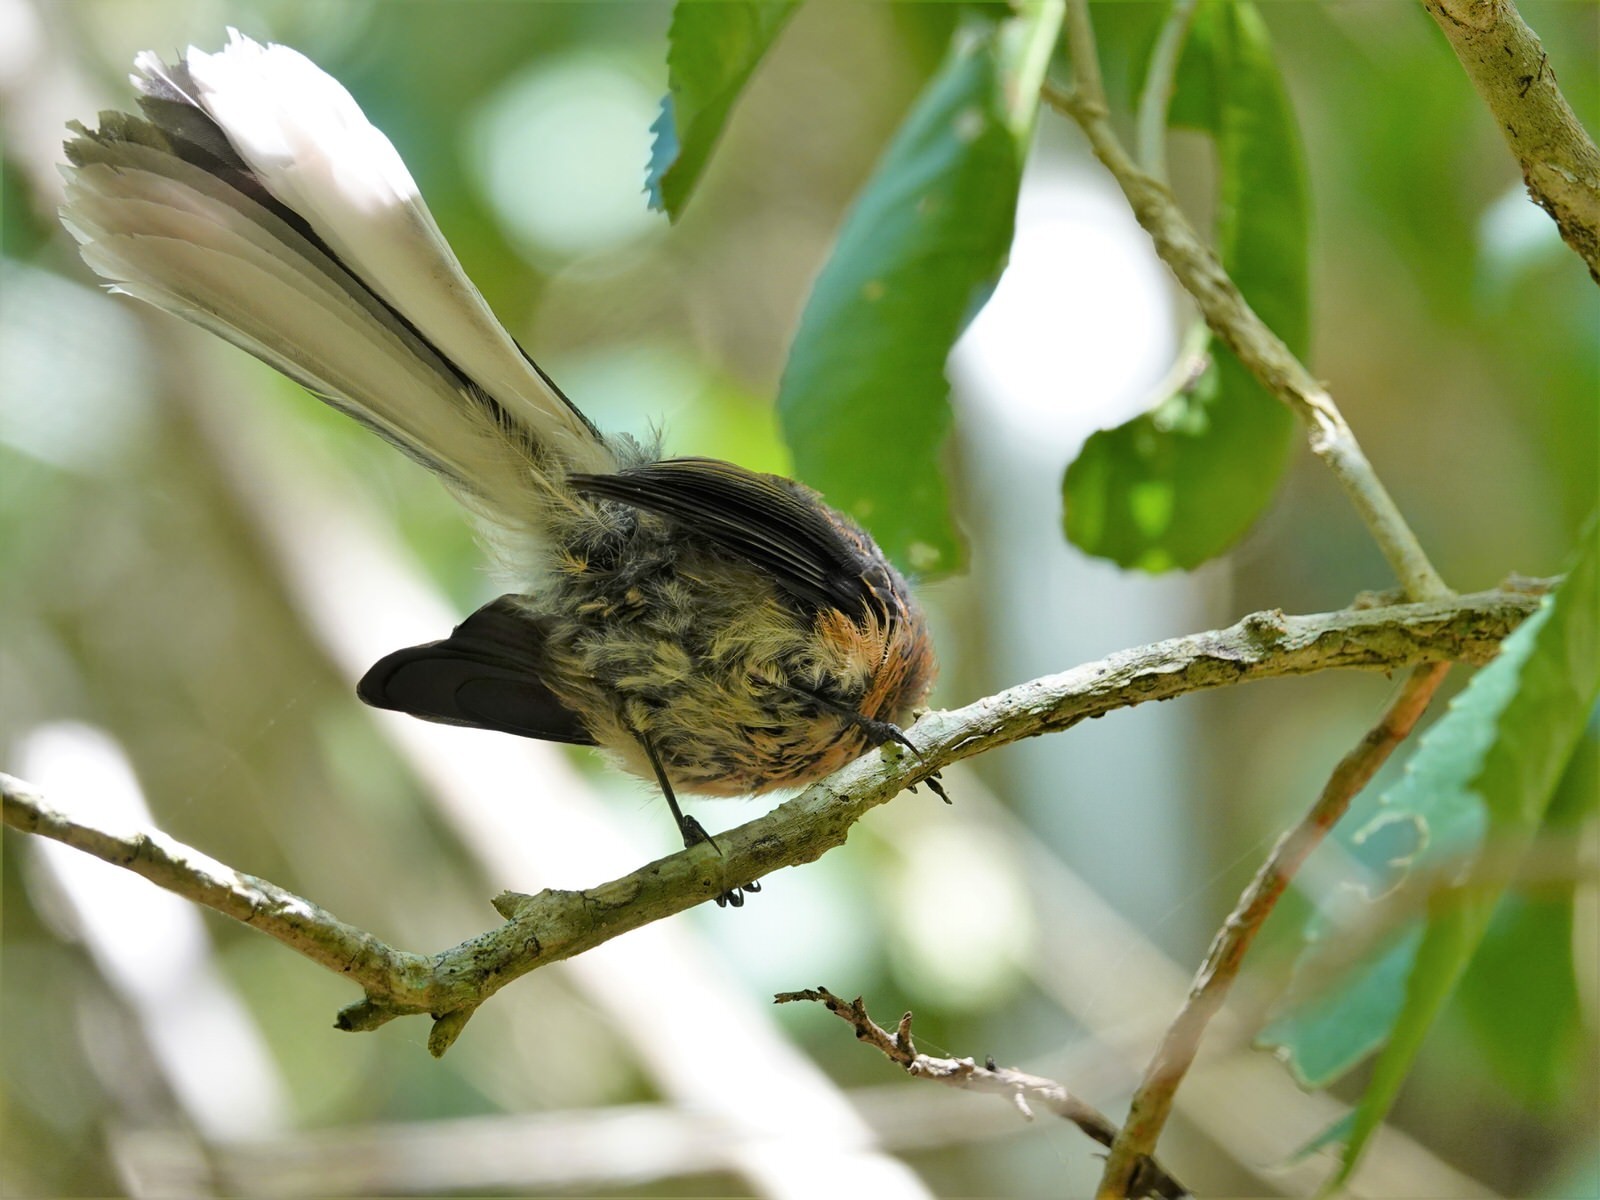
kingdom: Animalia
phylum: Chordata
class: Aves
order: Passeriformes
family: Rhipiduridae
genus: Rhipidura
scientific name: Rhipidura fuliginosa
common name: New zealand fantail
